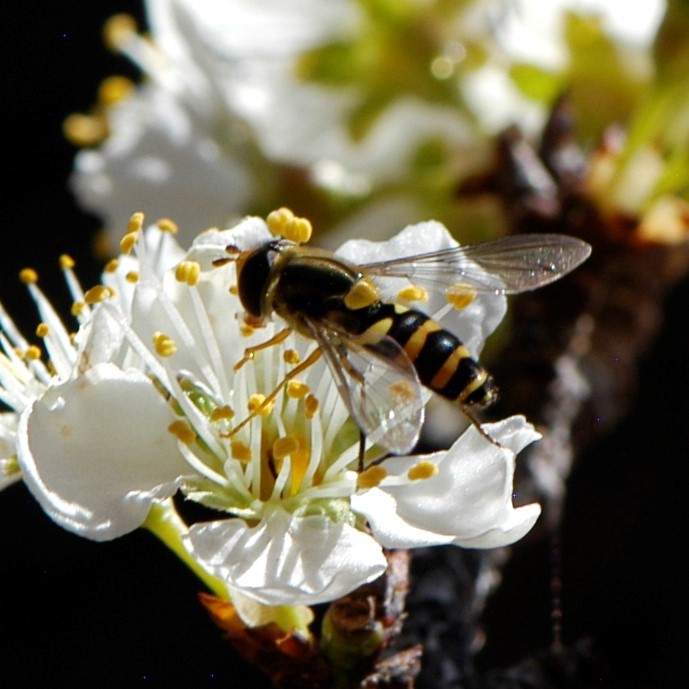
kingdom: Animalia
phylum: Arthropoda
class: Insecta
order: Diptera
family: Syrphidae
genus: Syrphus
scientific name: Syrphus opinator
